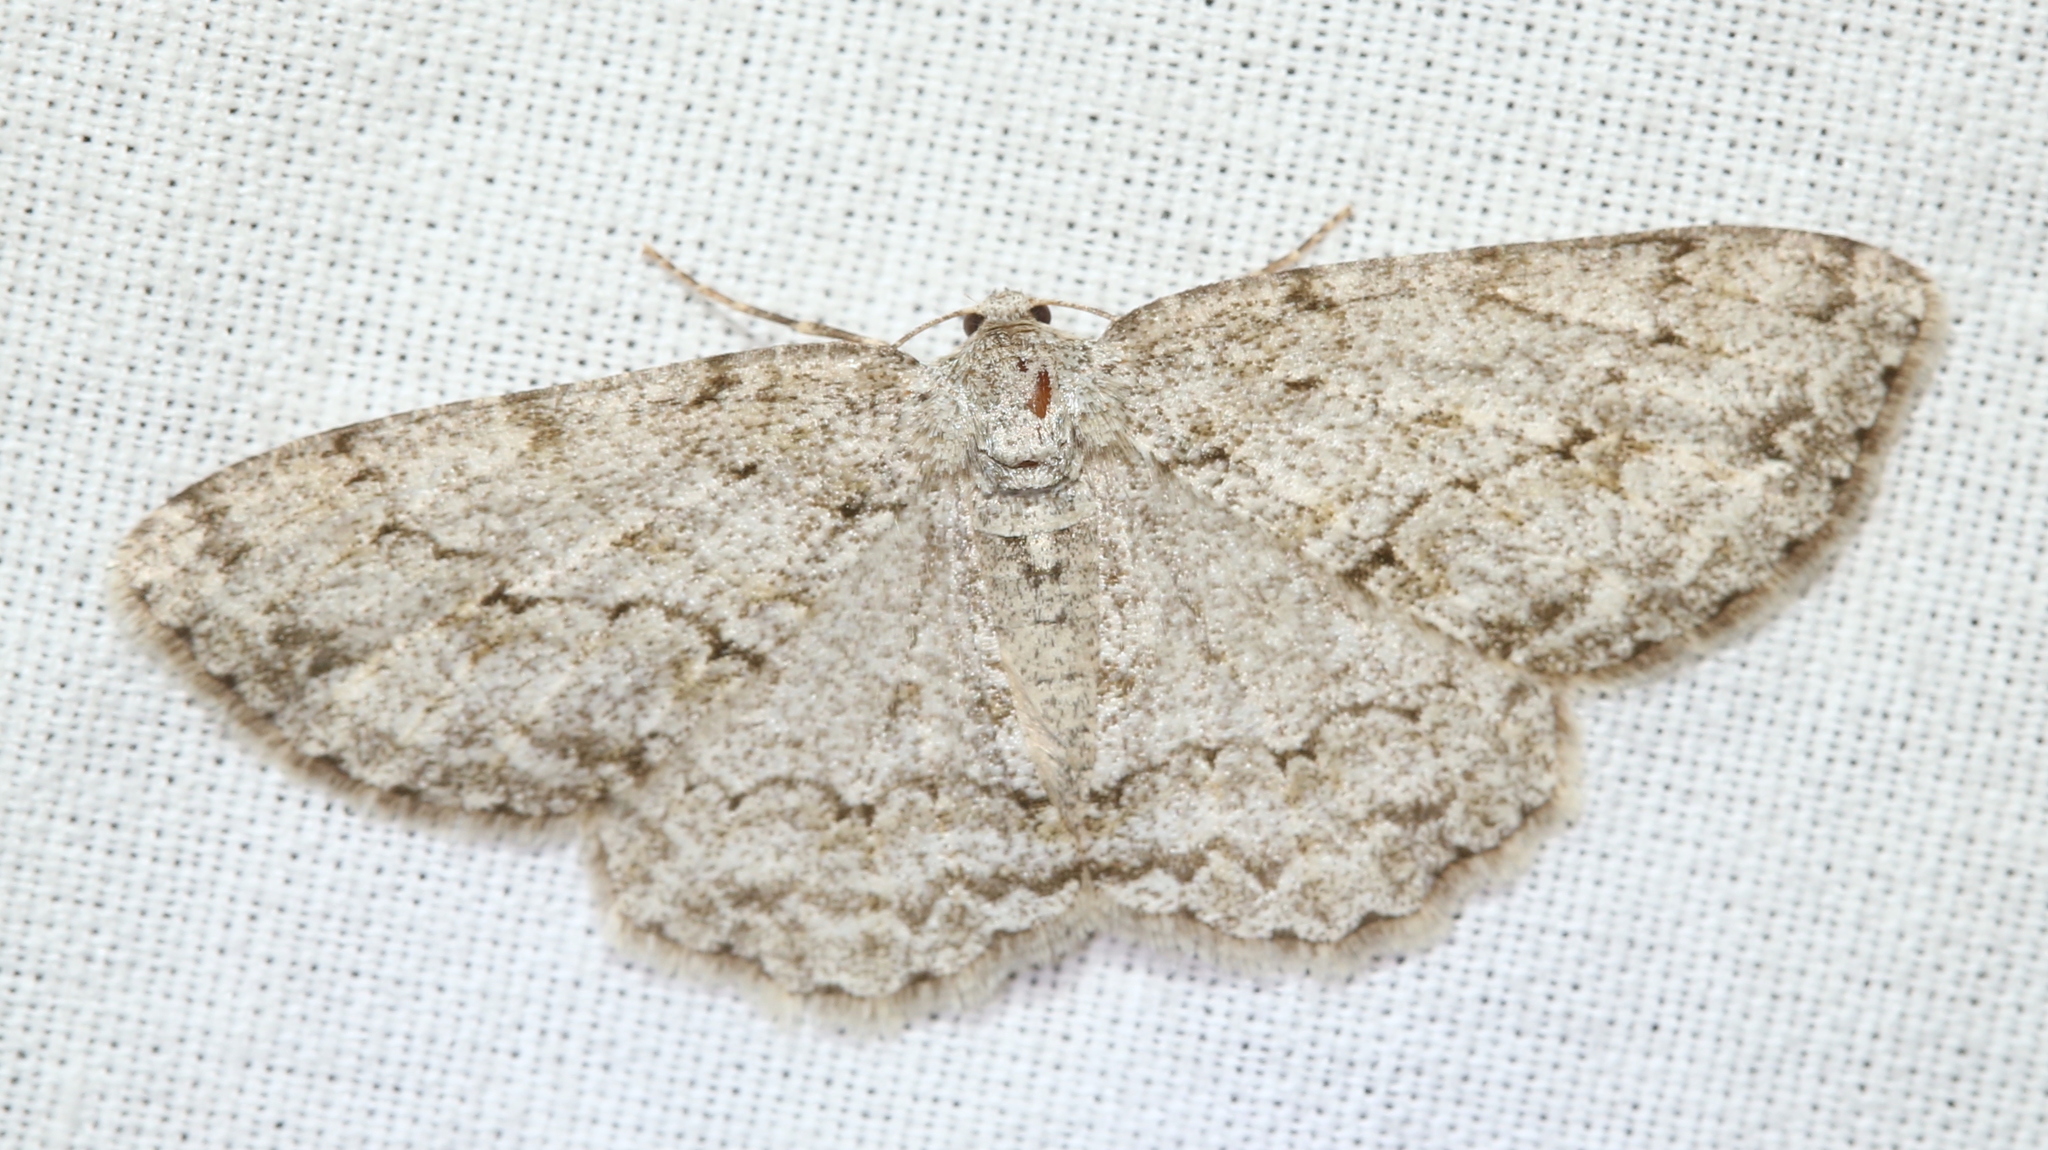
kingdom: Animalia
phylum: Arthropoda
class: Insecta
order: Lepidoptera
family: Geometridae
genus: Ectropis
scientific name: Ectropis crepuscularia
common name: Engrailed
